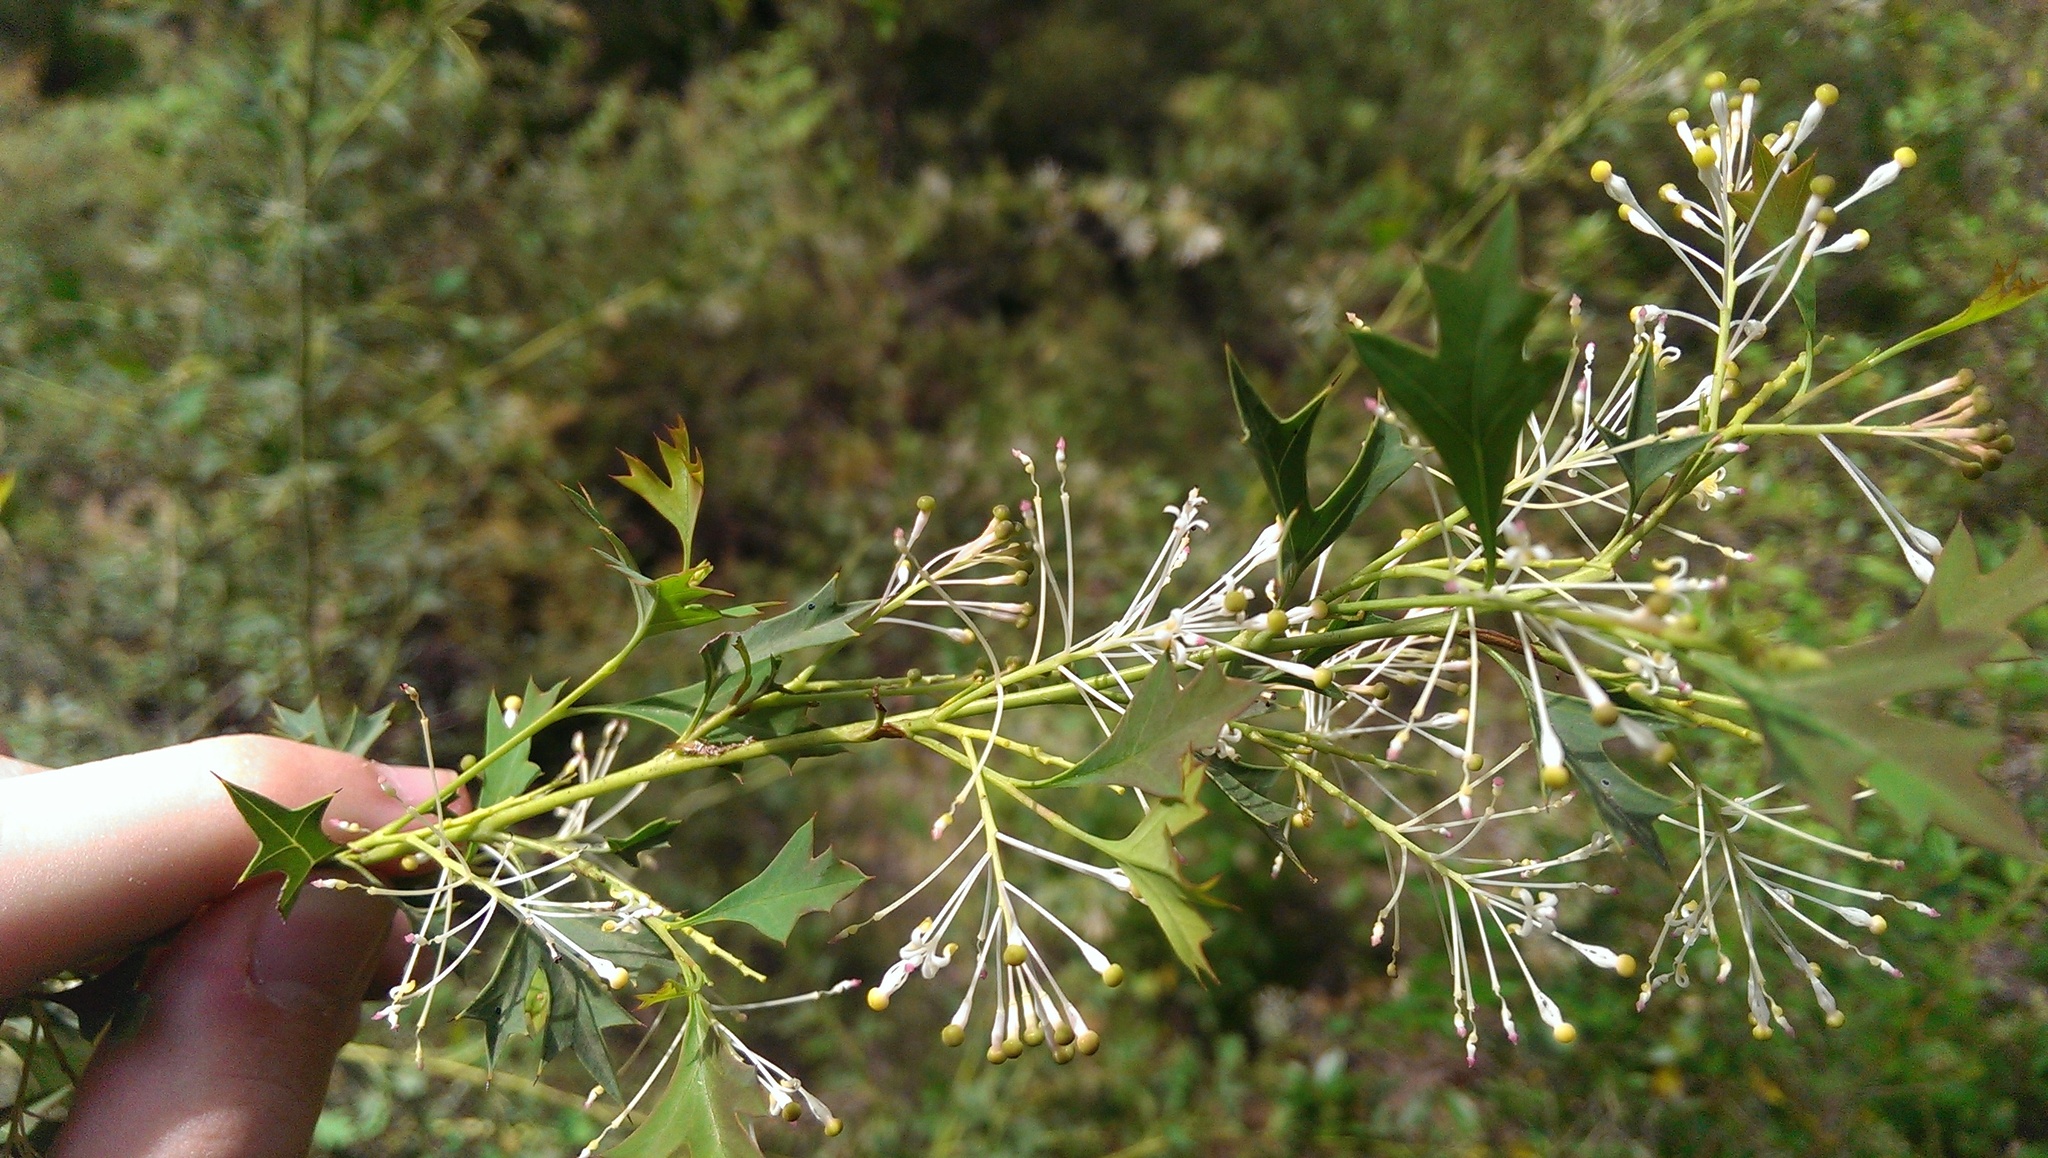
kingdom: Plantae
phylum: Tracheophyta
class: Magnoliopsida
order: Proteales
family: Proteaceae
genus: Grevillea
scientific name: Grevillea manglesii
